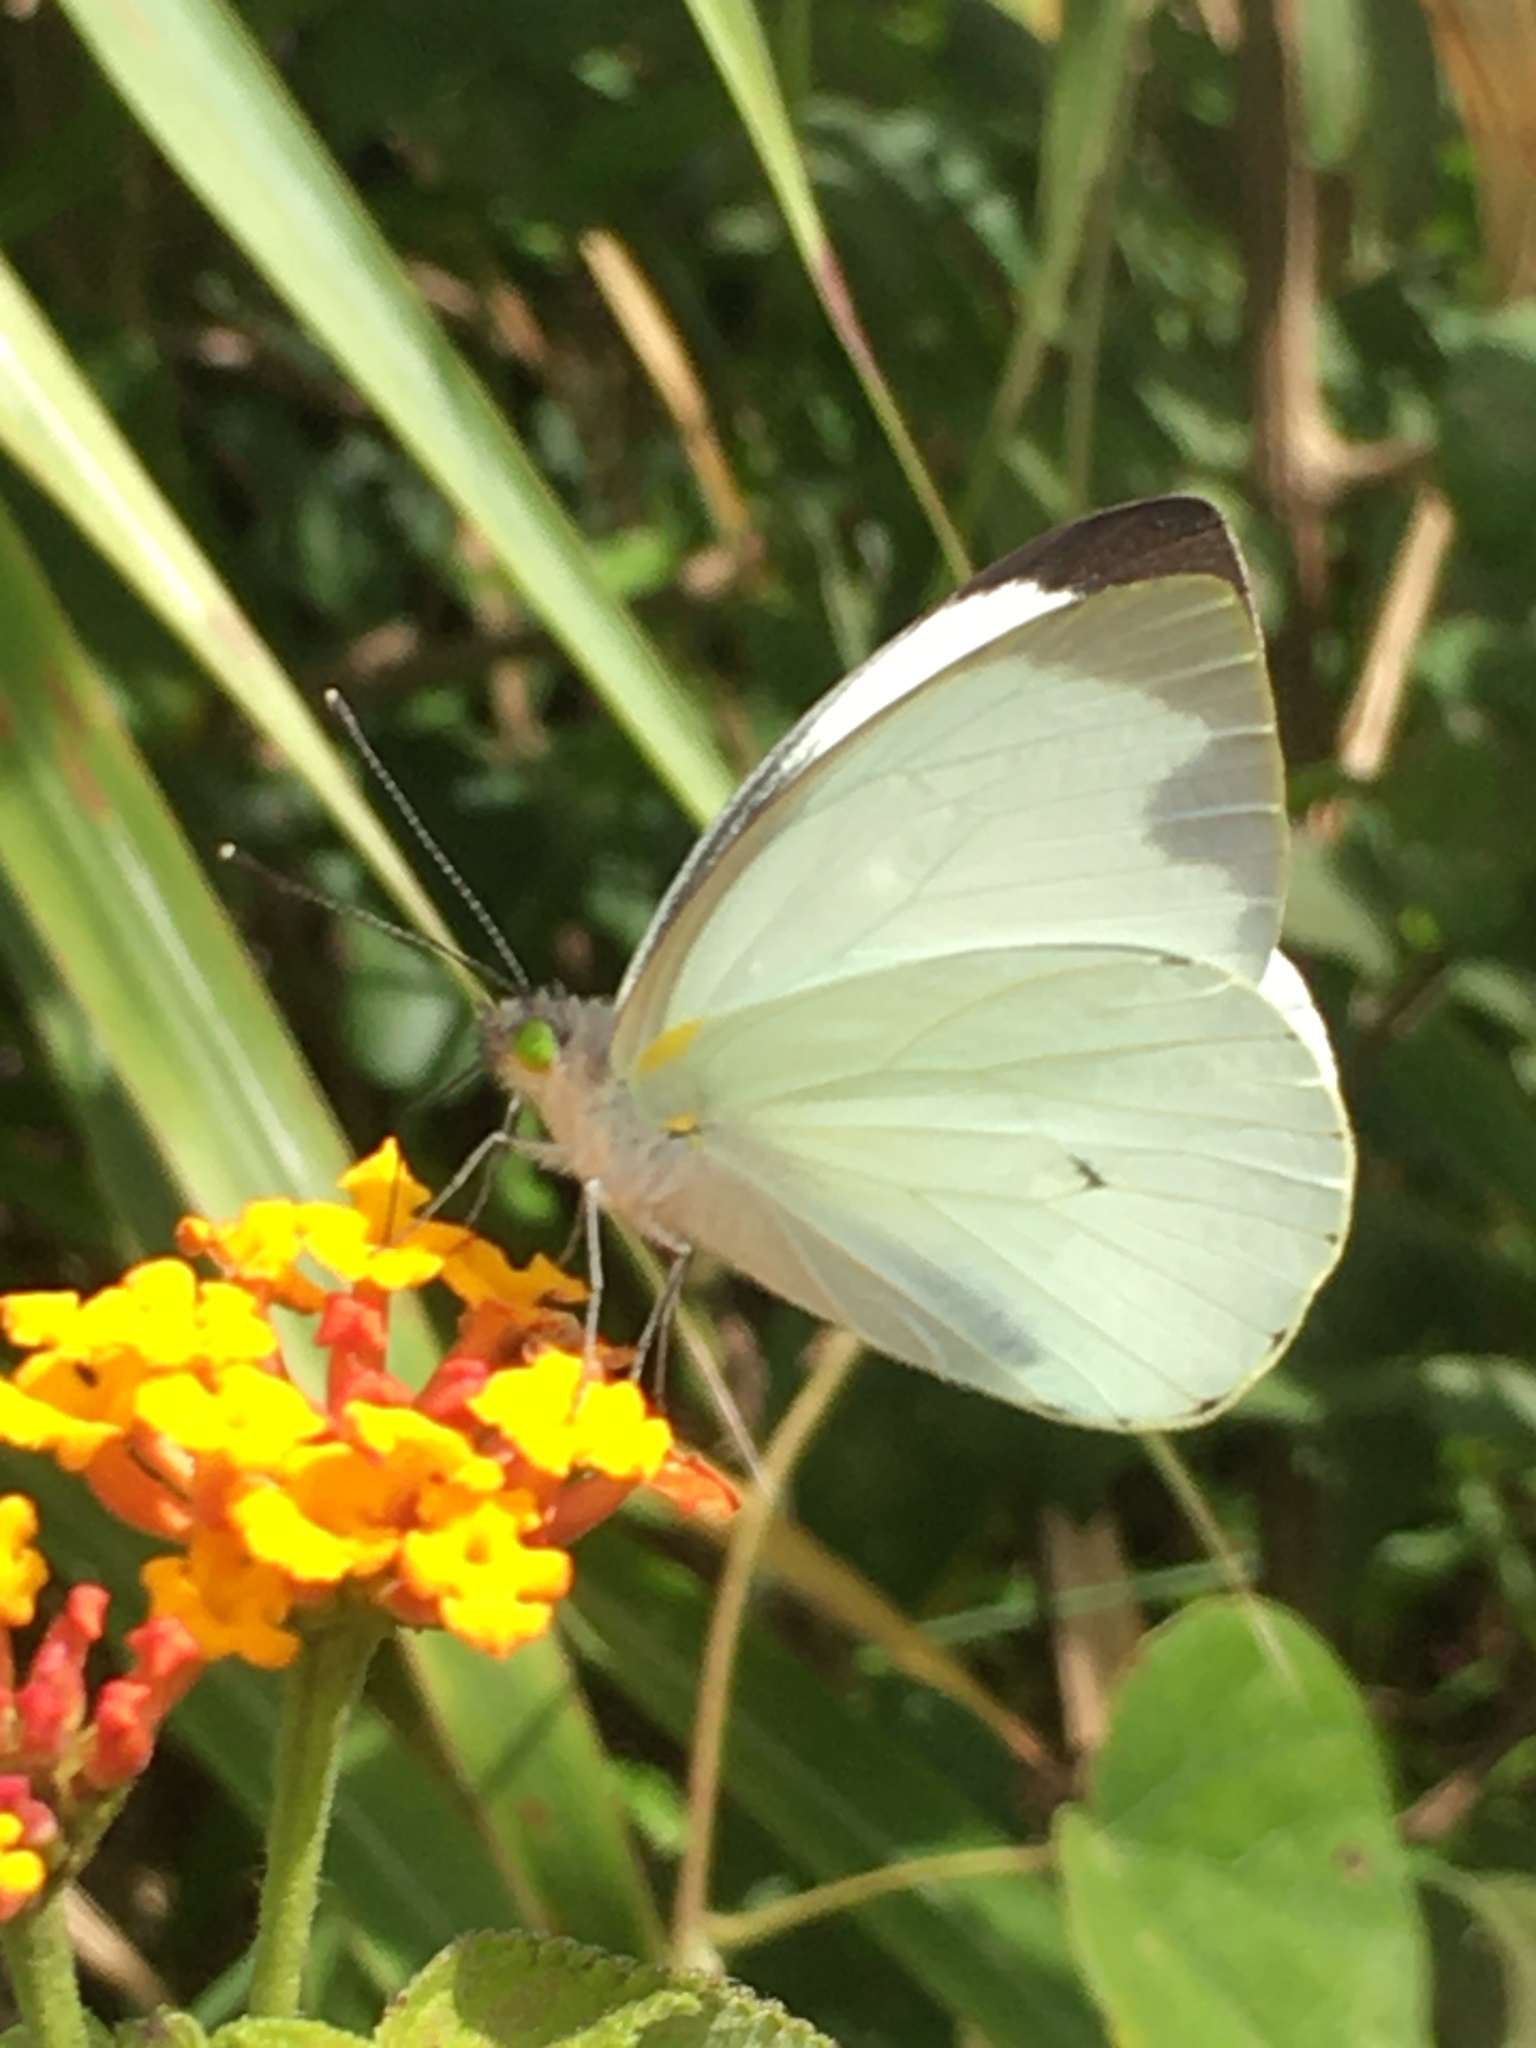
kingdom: Animalia
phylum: Arthropoda
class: Insecta
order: Lepidoptera
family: Pieridae
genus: Leptophobia
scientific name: Leptophobia aripa
